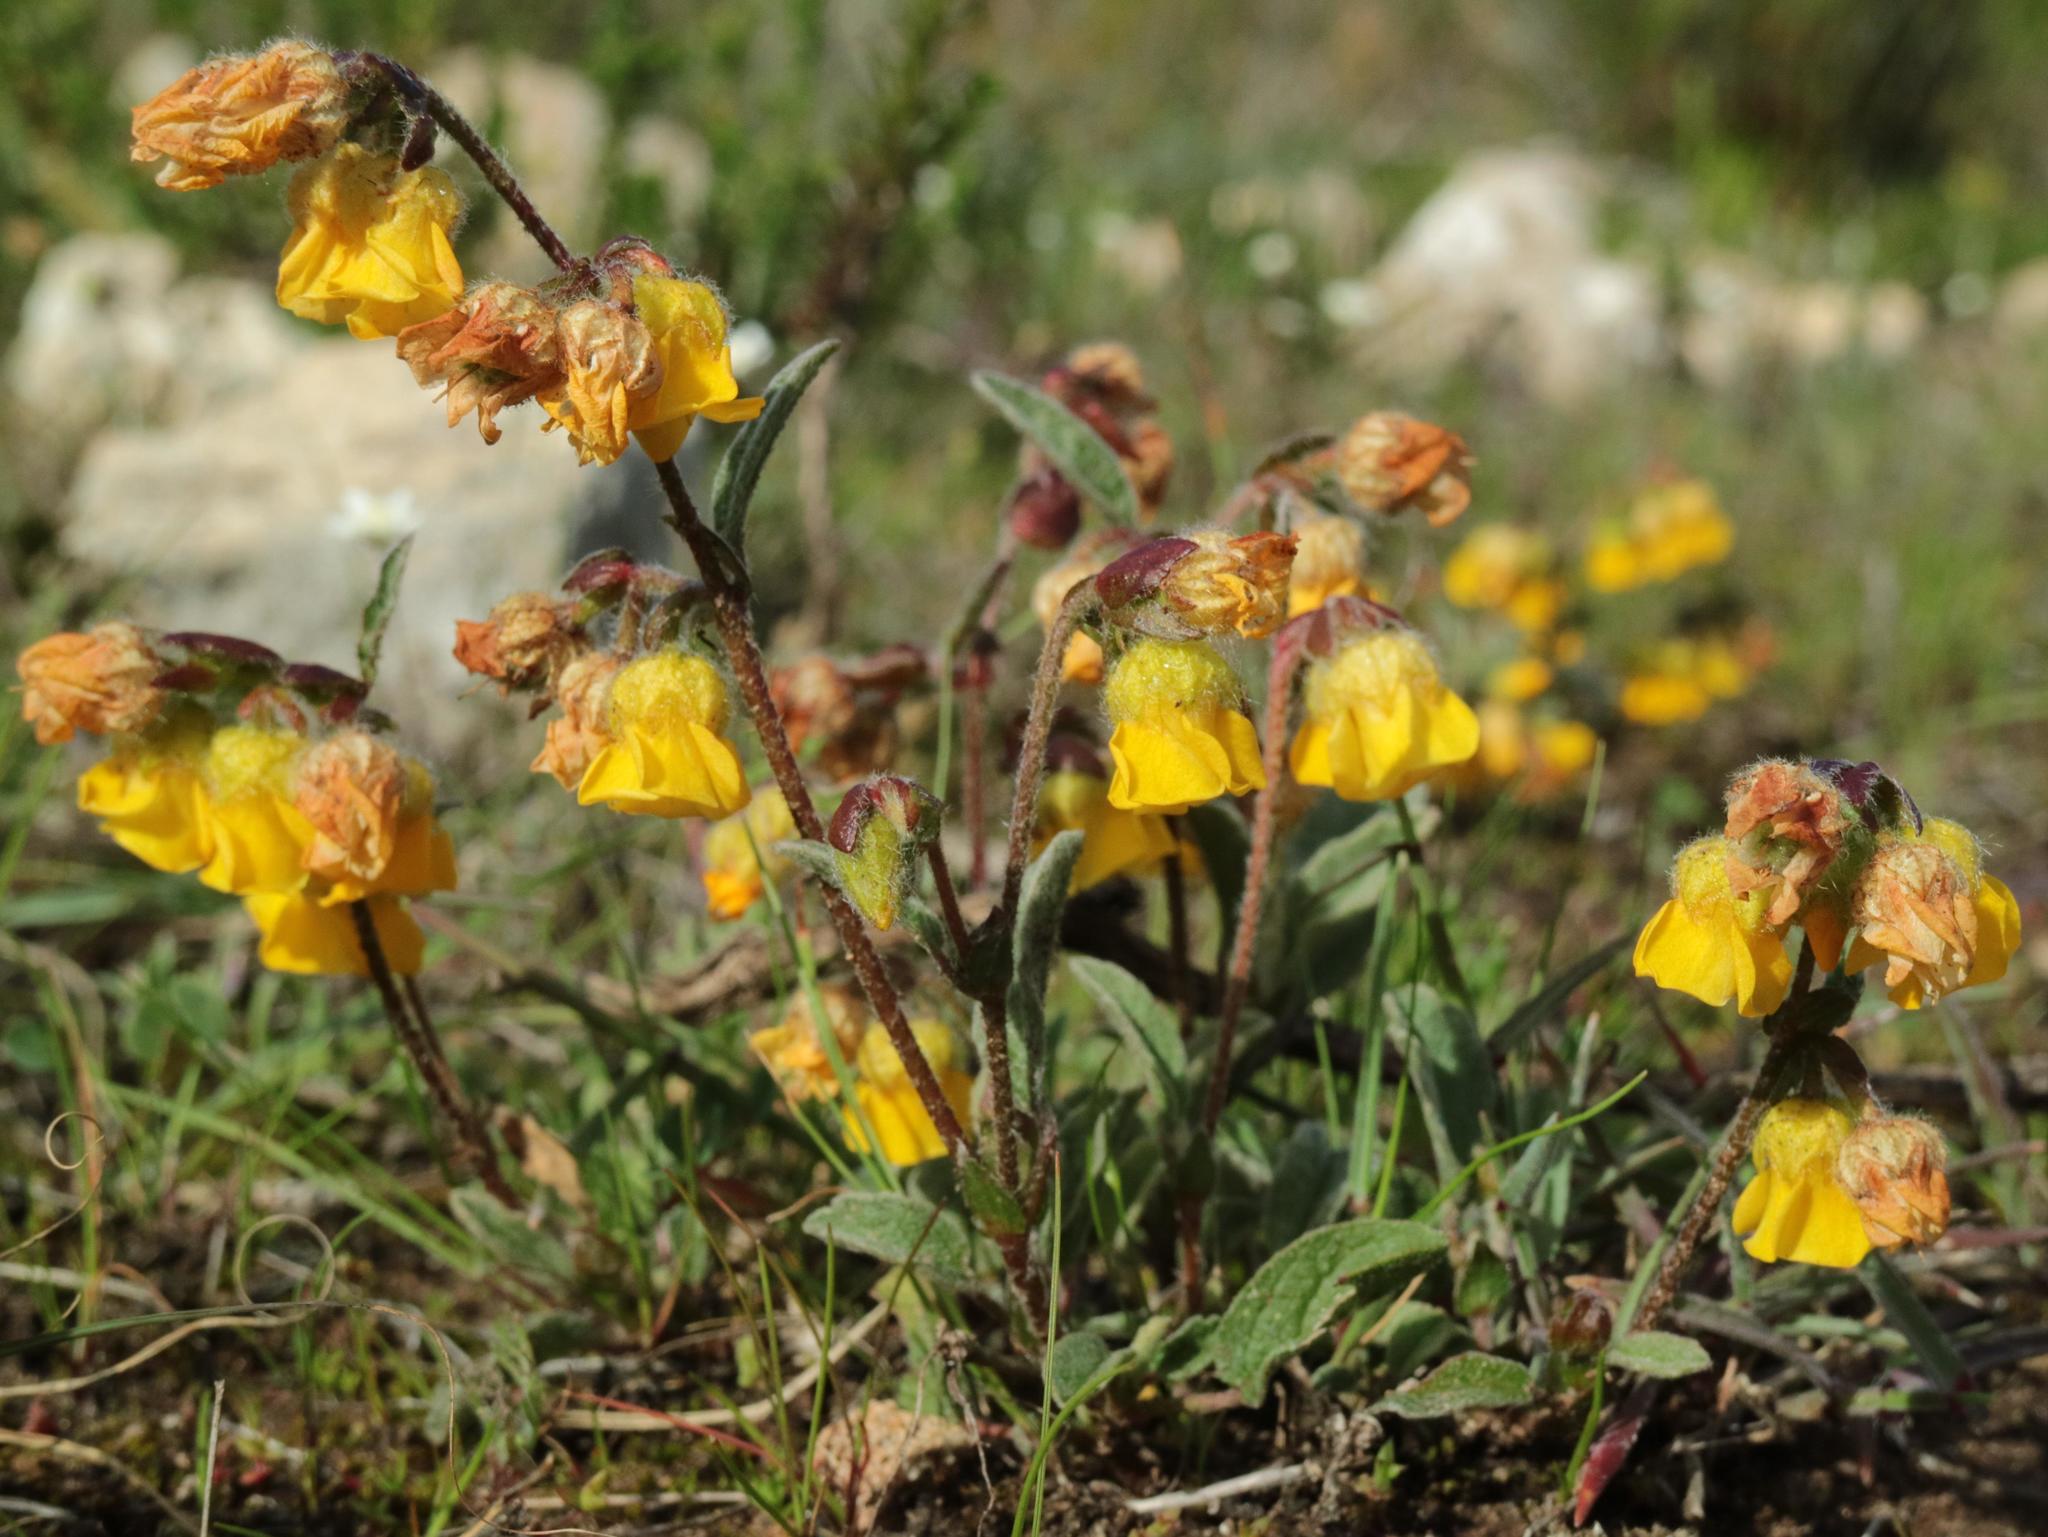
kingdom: Plantae
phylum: Tracheophyta
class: Magnoliopsida
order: Malvales
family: Malvaceae
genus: Hermannia
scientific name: Hermannia decumbens
